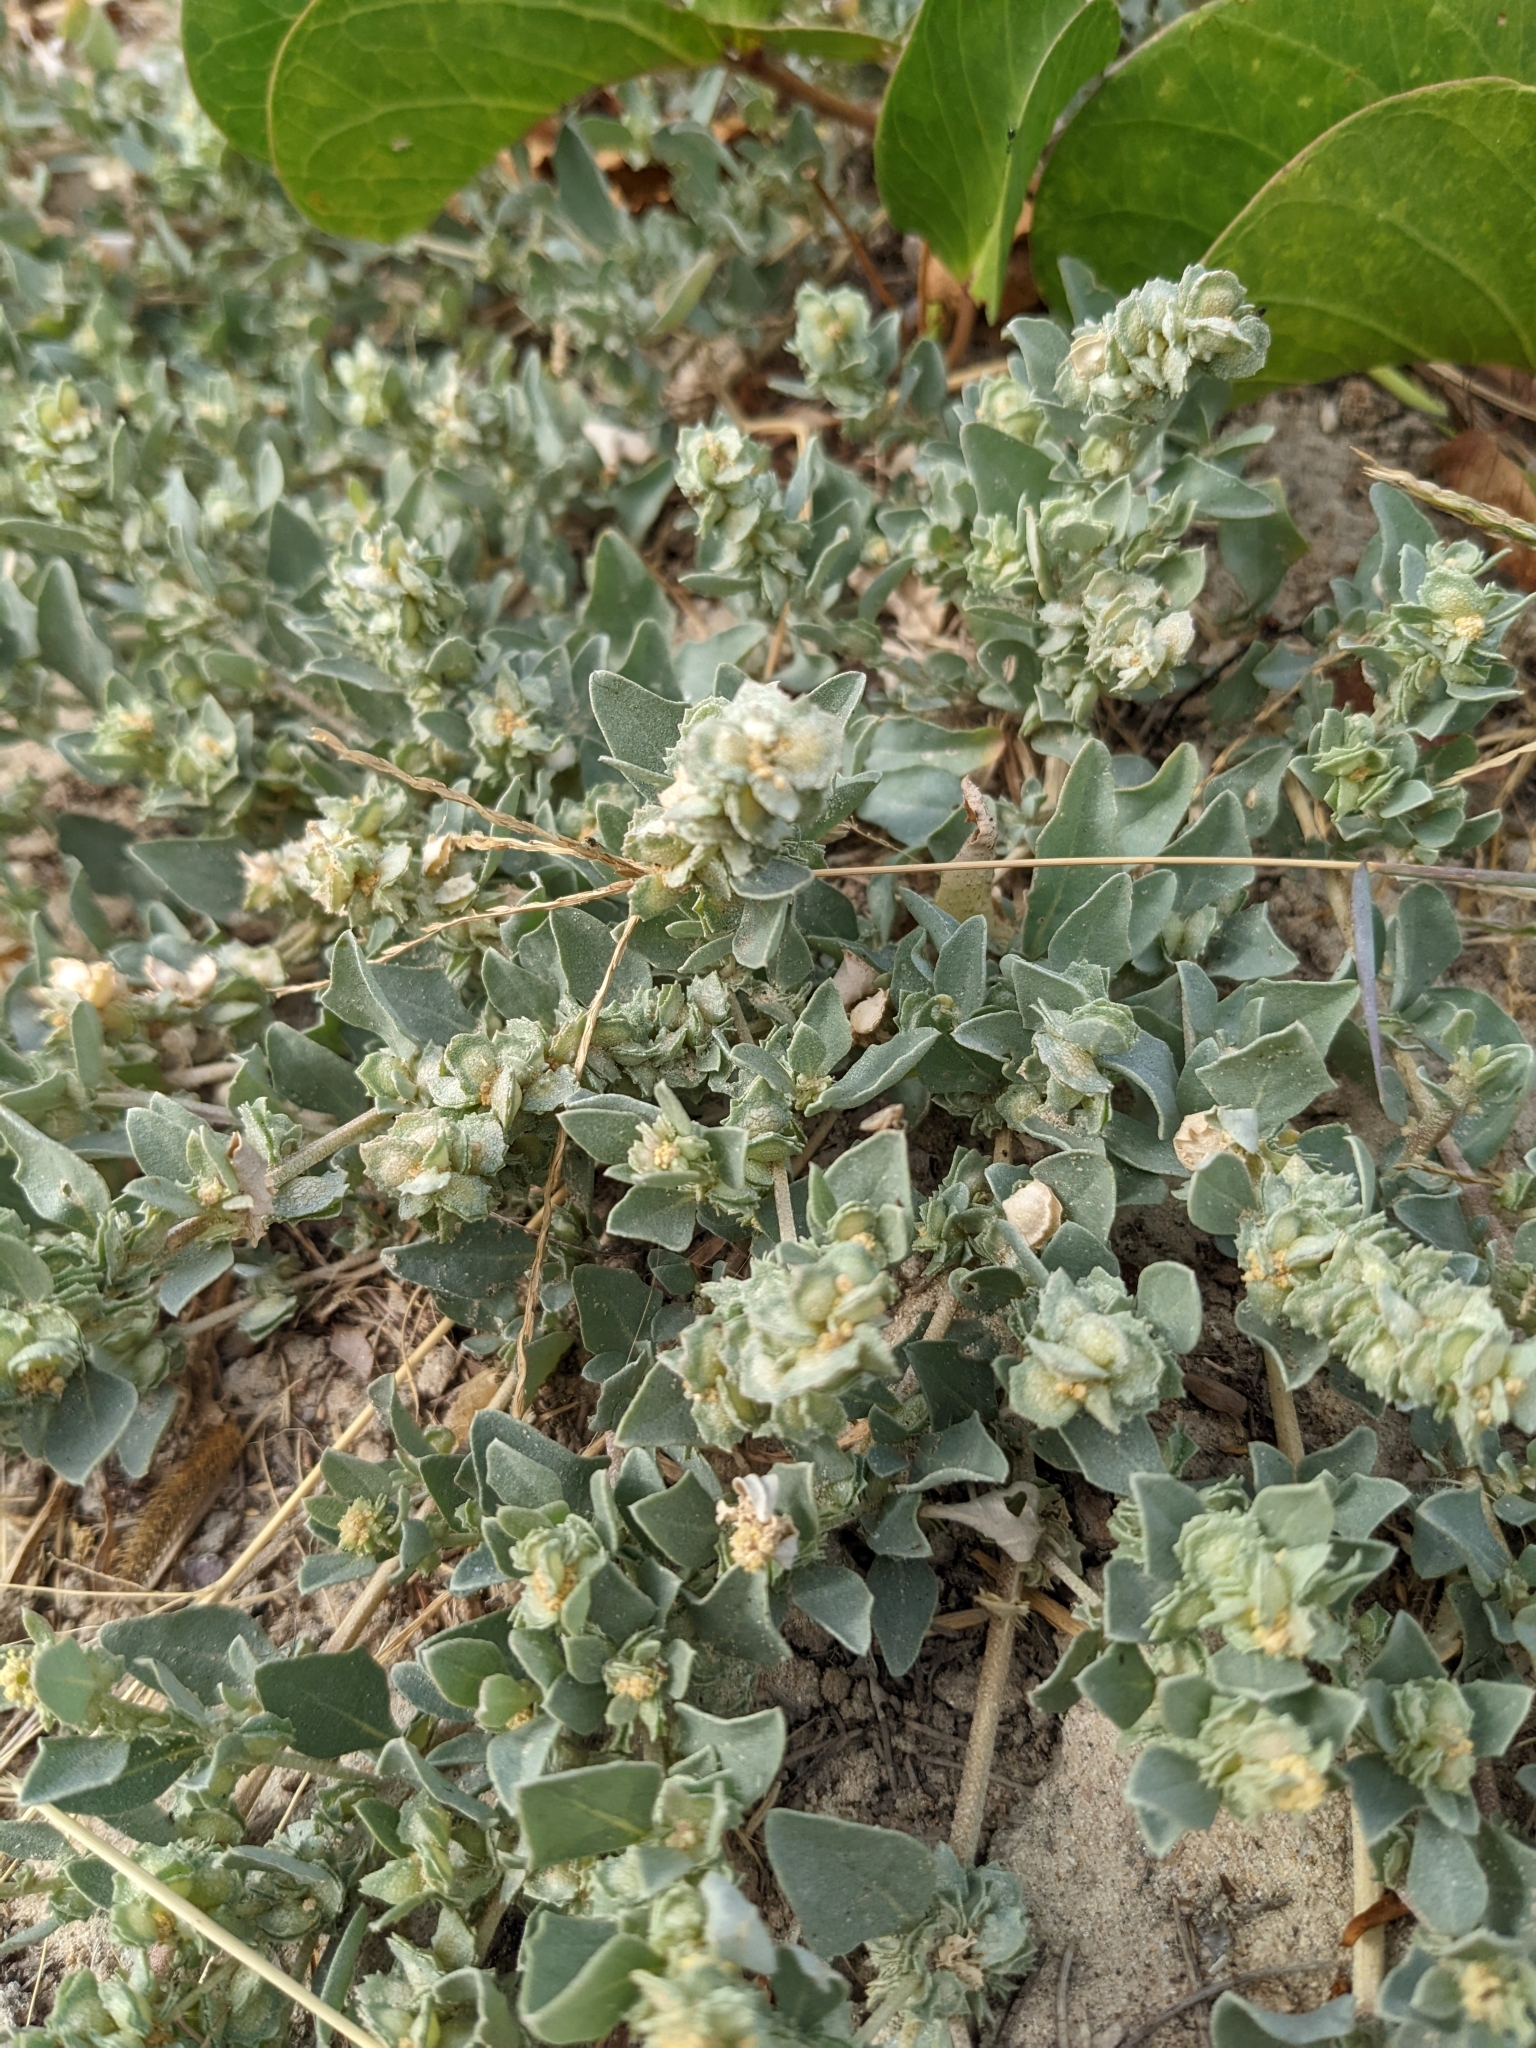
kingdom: Plantae
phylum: Tracheophyta
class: Magnoliopsida
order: Caryophyllales
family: Amaranthaceae
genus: Atriplex
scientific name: Atriplex maximowicziana
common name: Maximowicz's saltbush
